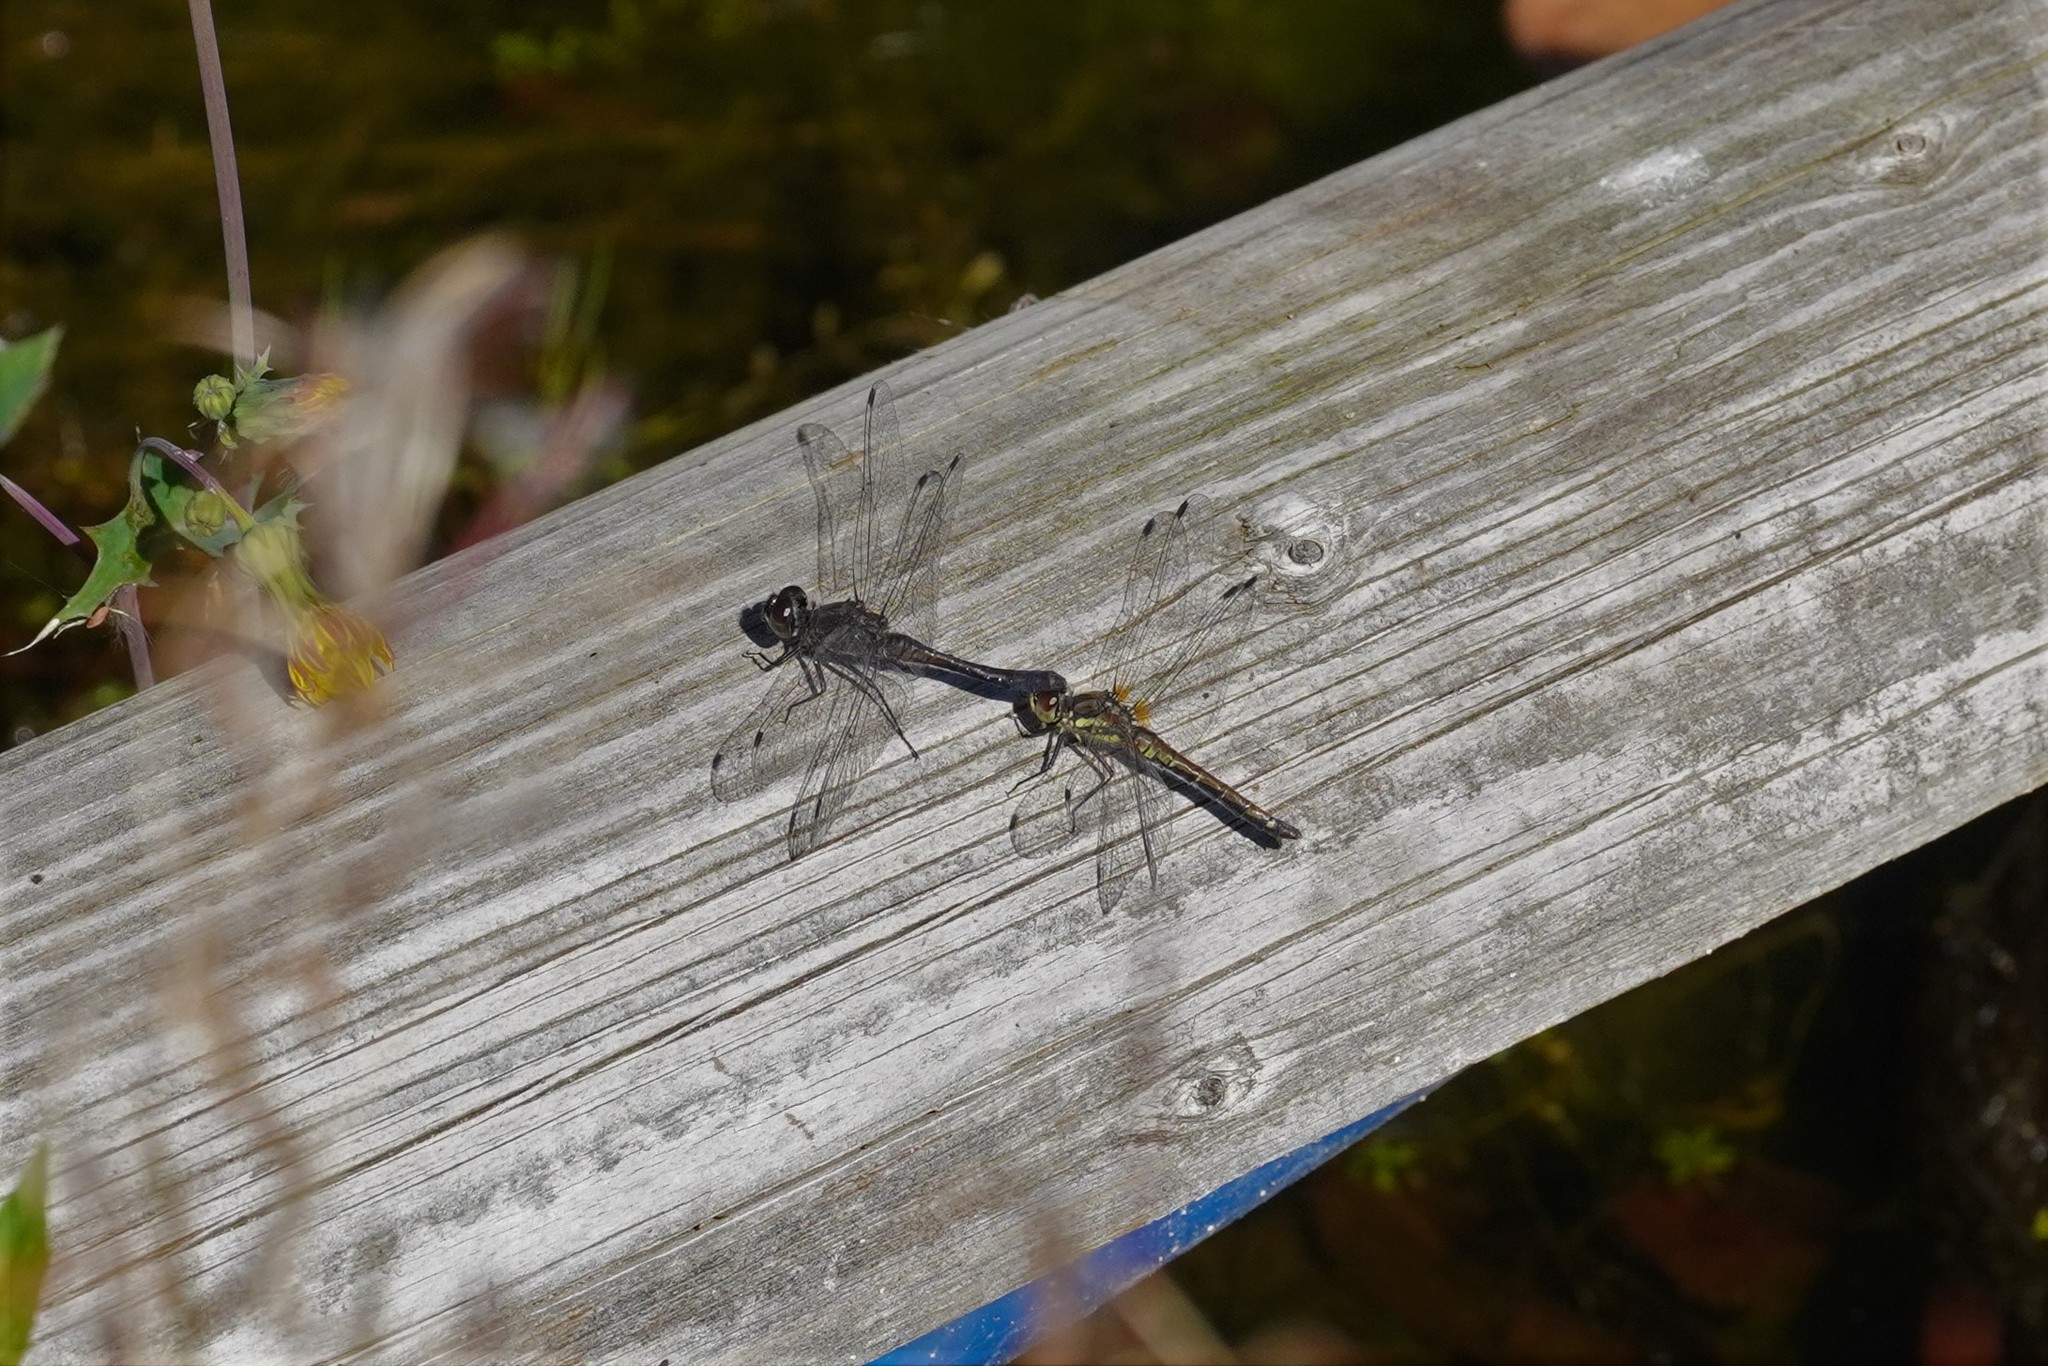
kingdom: Animalia
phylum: Arthropoda
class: Insecta
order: Odonata
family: Libellulidae
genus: Sympetrum
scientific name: Sympetrum danae
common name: Black darter
